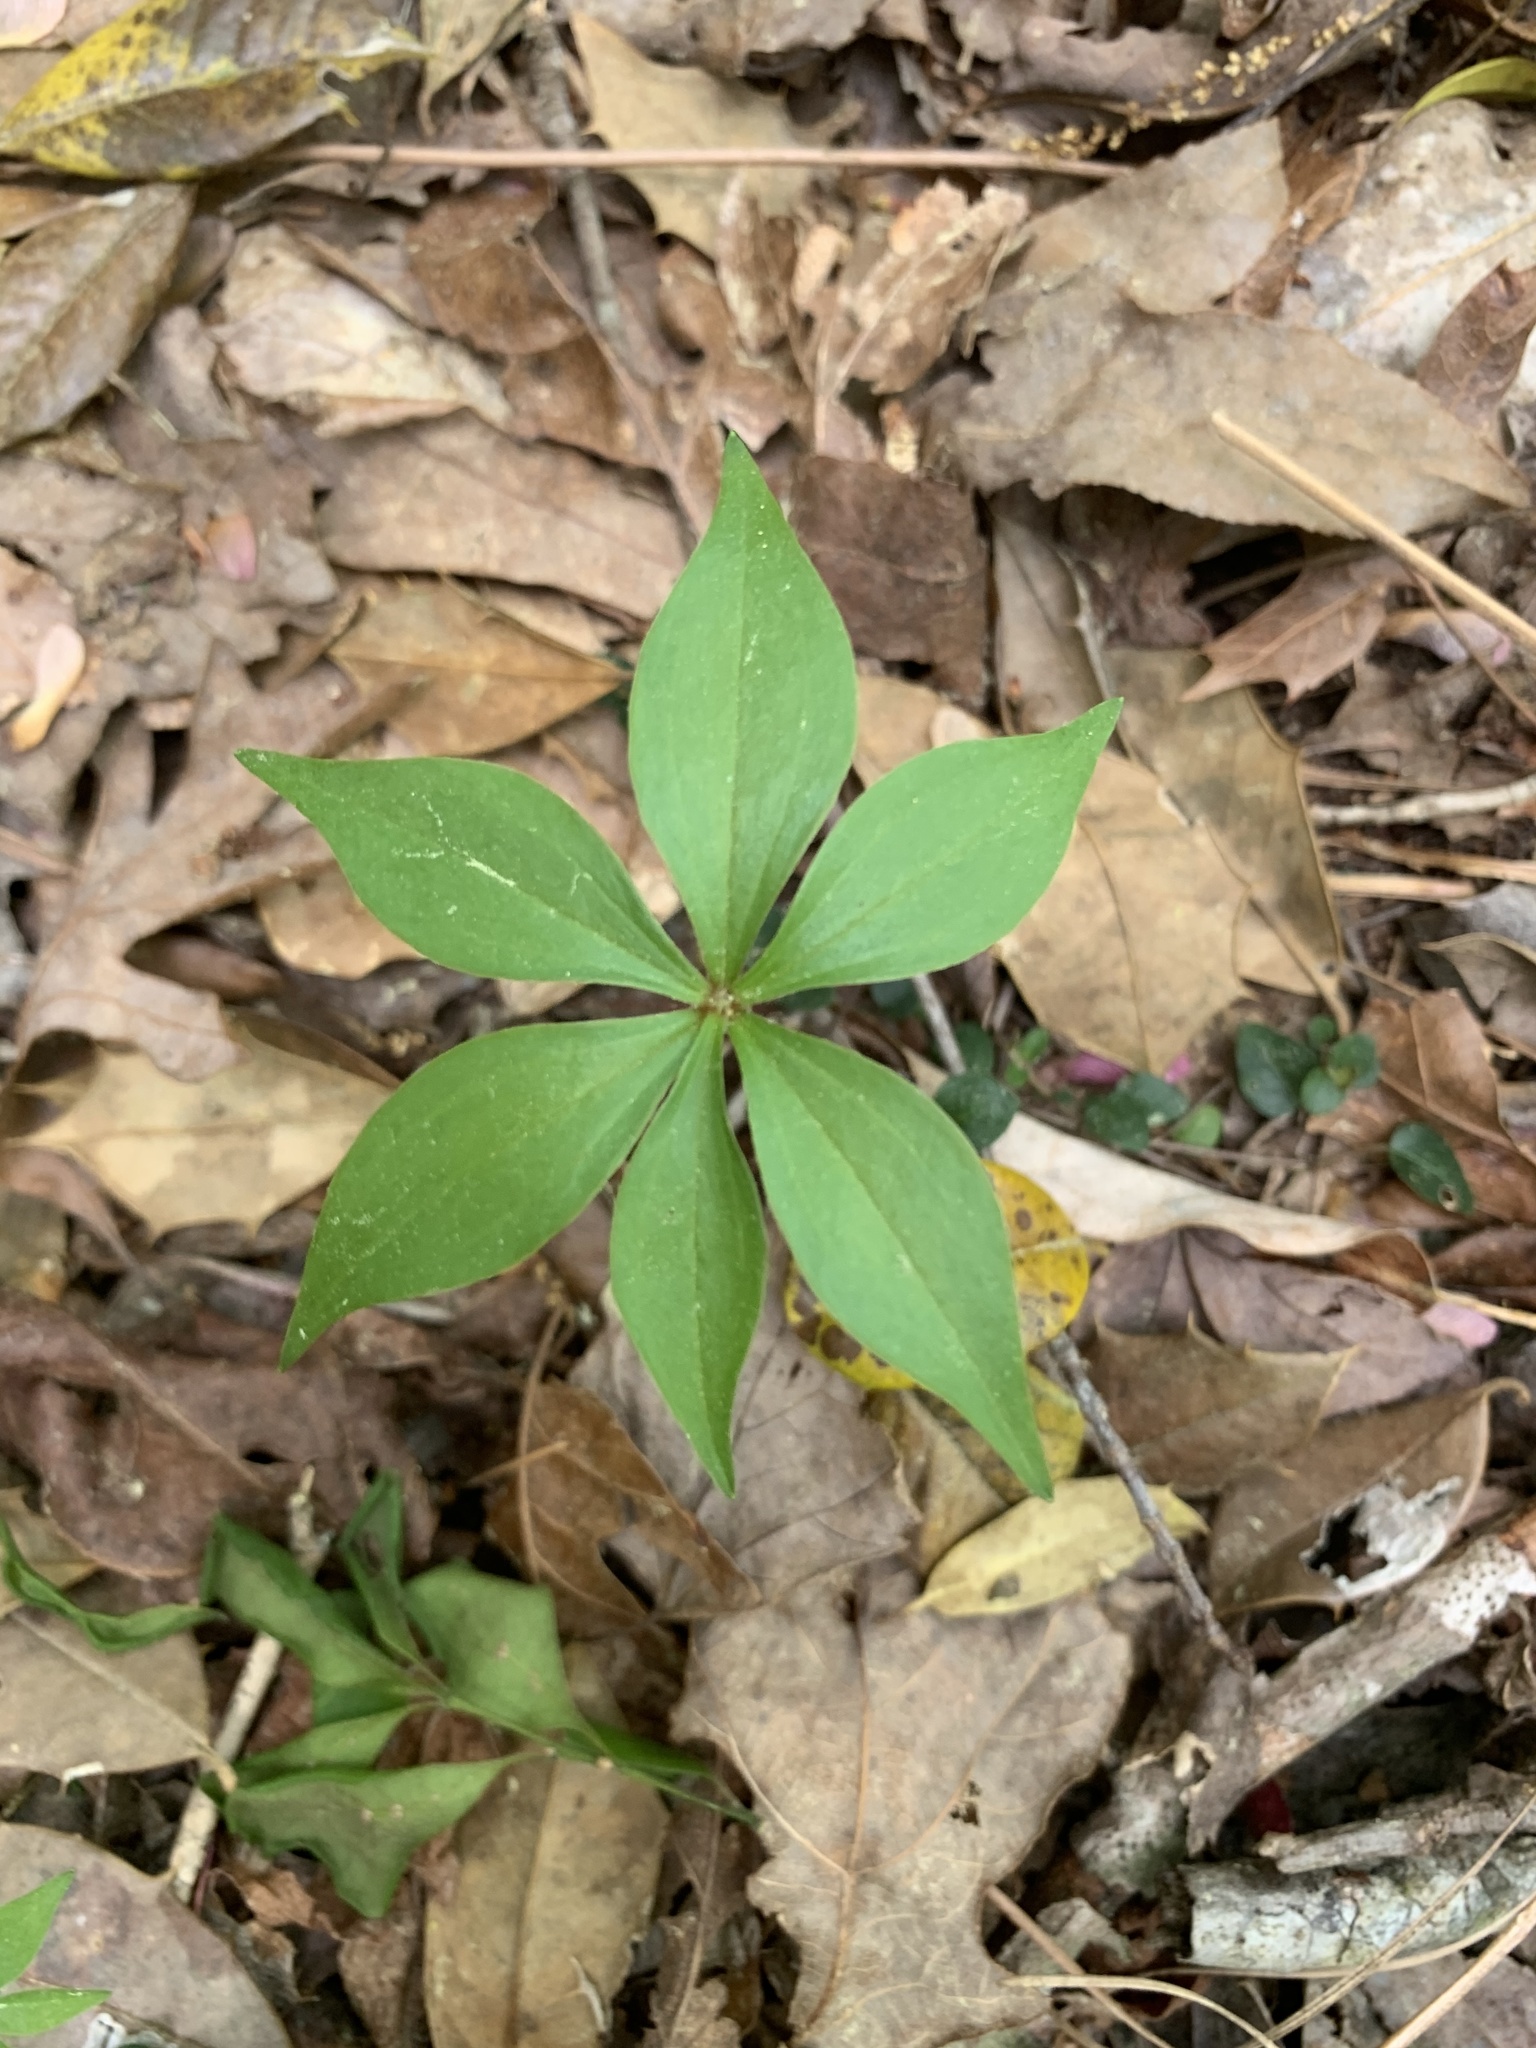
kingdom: Plantae
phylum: Tracheophyta
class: Liliopsida
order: Liliales
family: Liliaceae
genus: Medeola
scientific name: Medeola virginiana
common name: Indian cucumber-root
